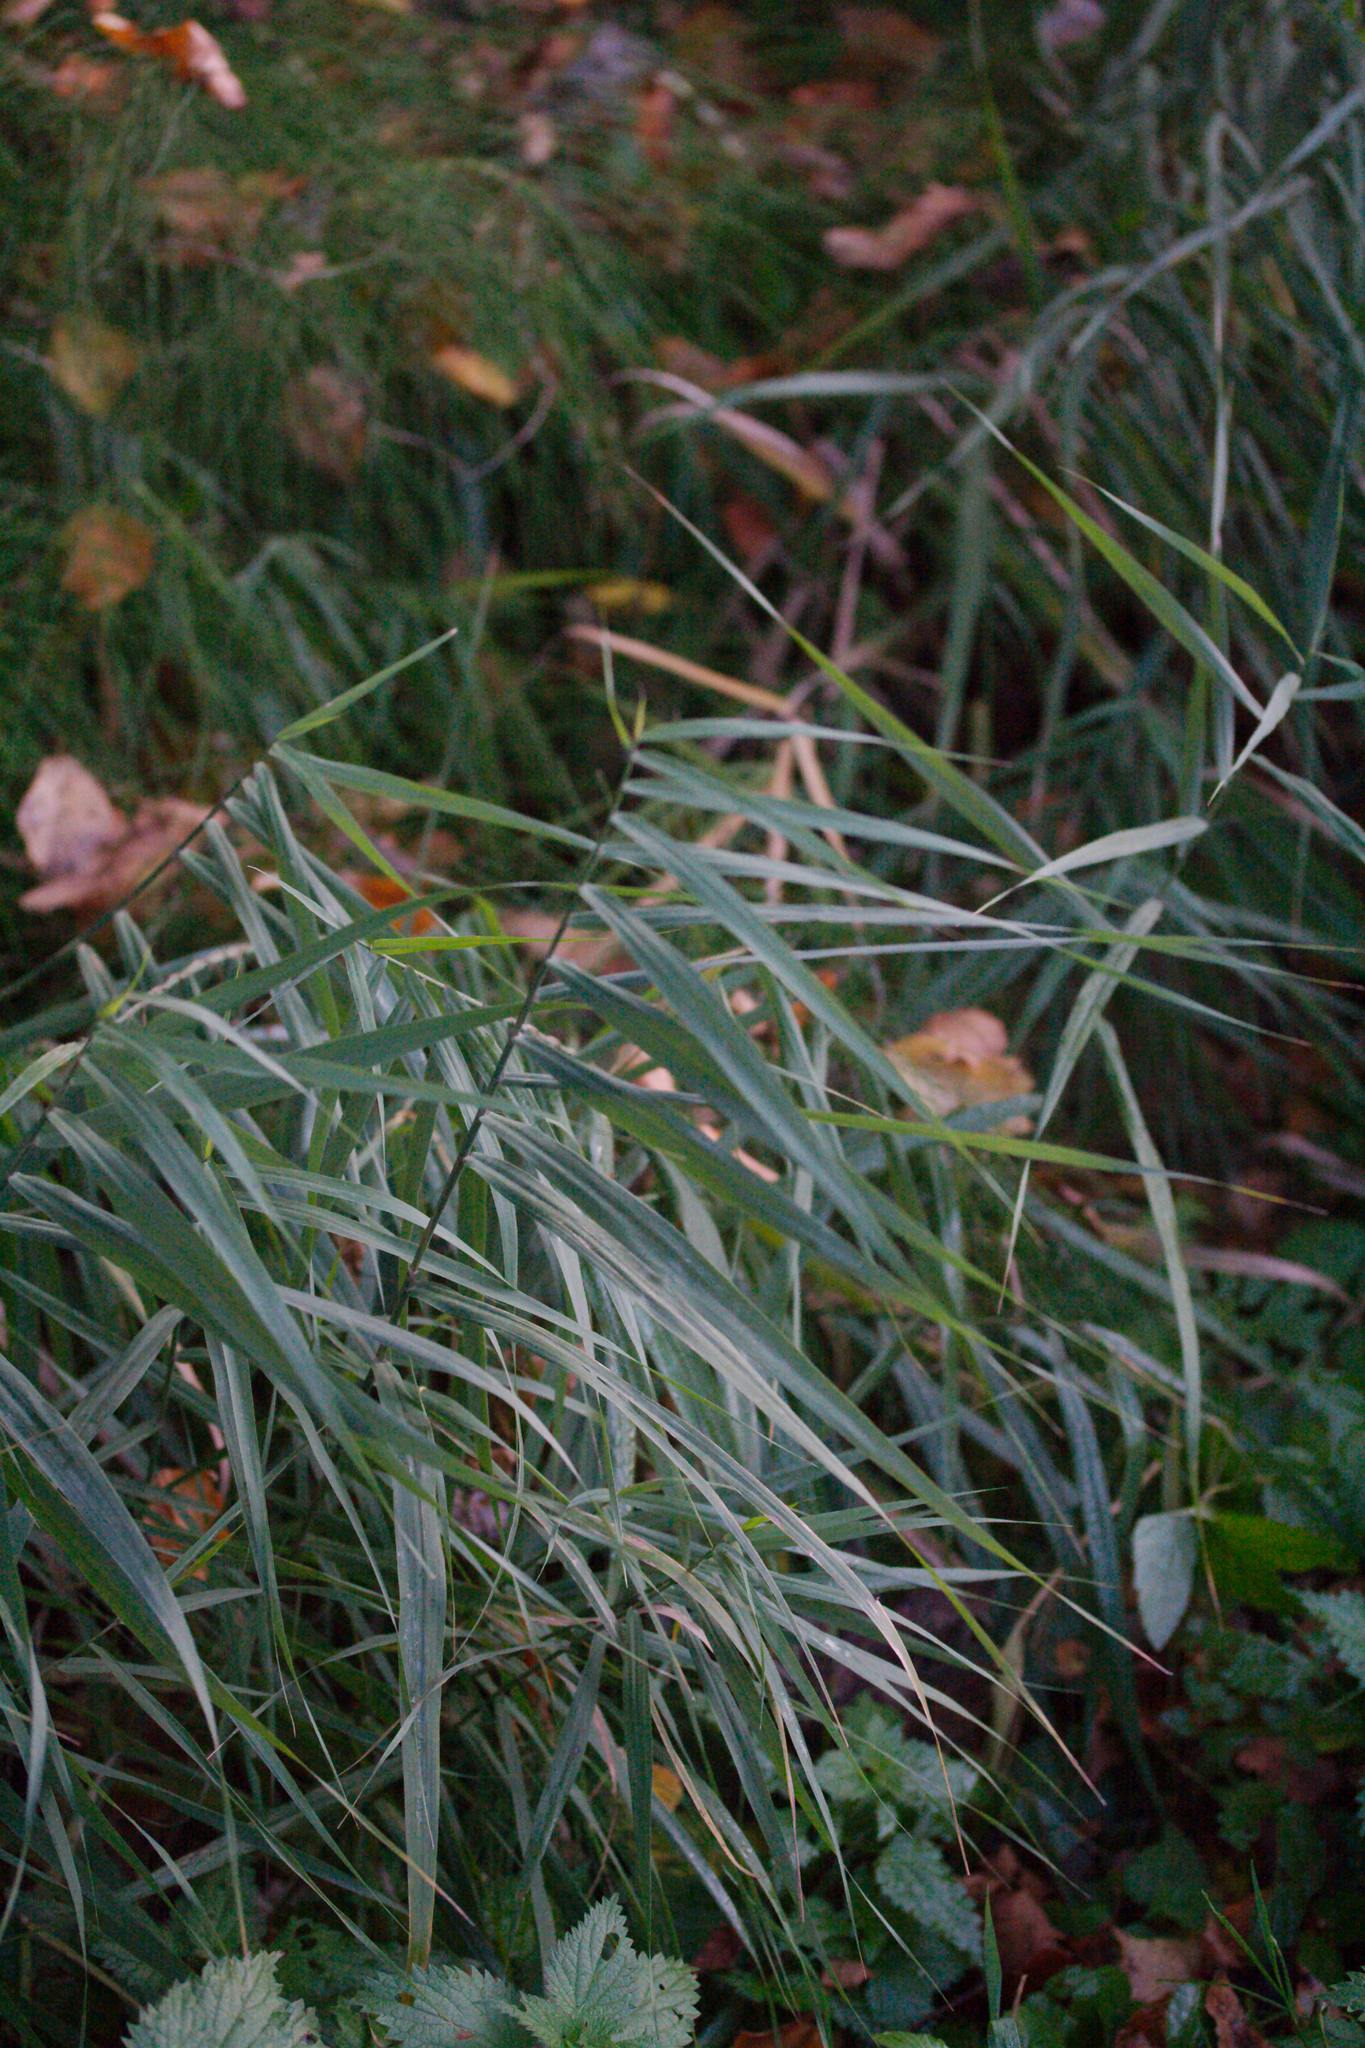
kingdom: Plantae
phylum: Tracheophyta
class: Liliopsida
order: Poales
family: Poaceae
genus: Phragmites
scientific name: Phragmites australis
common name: Common reed
